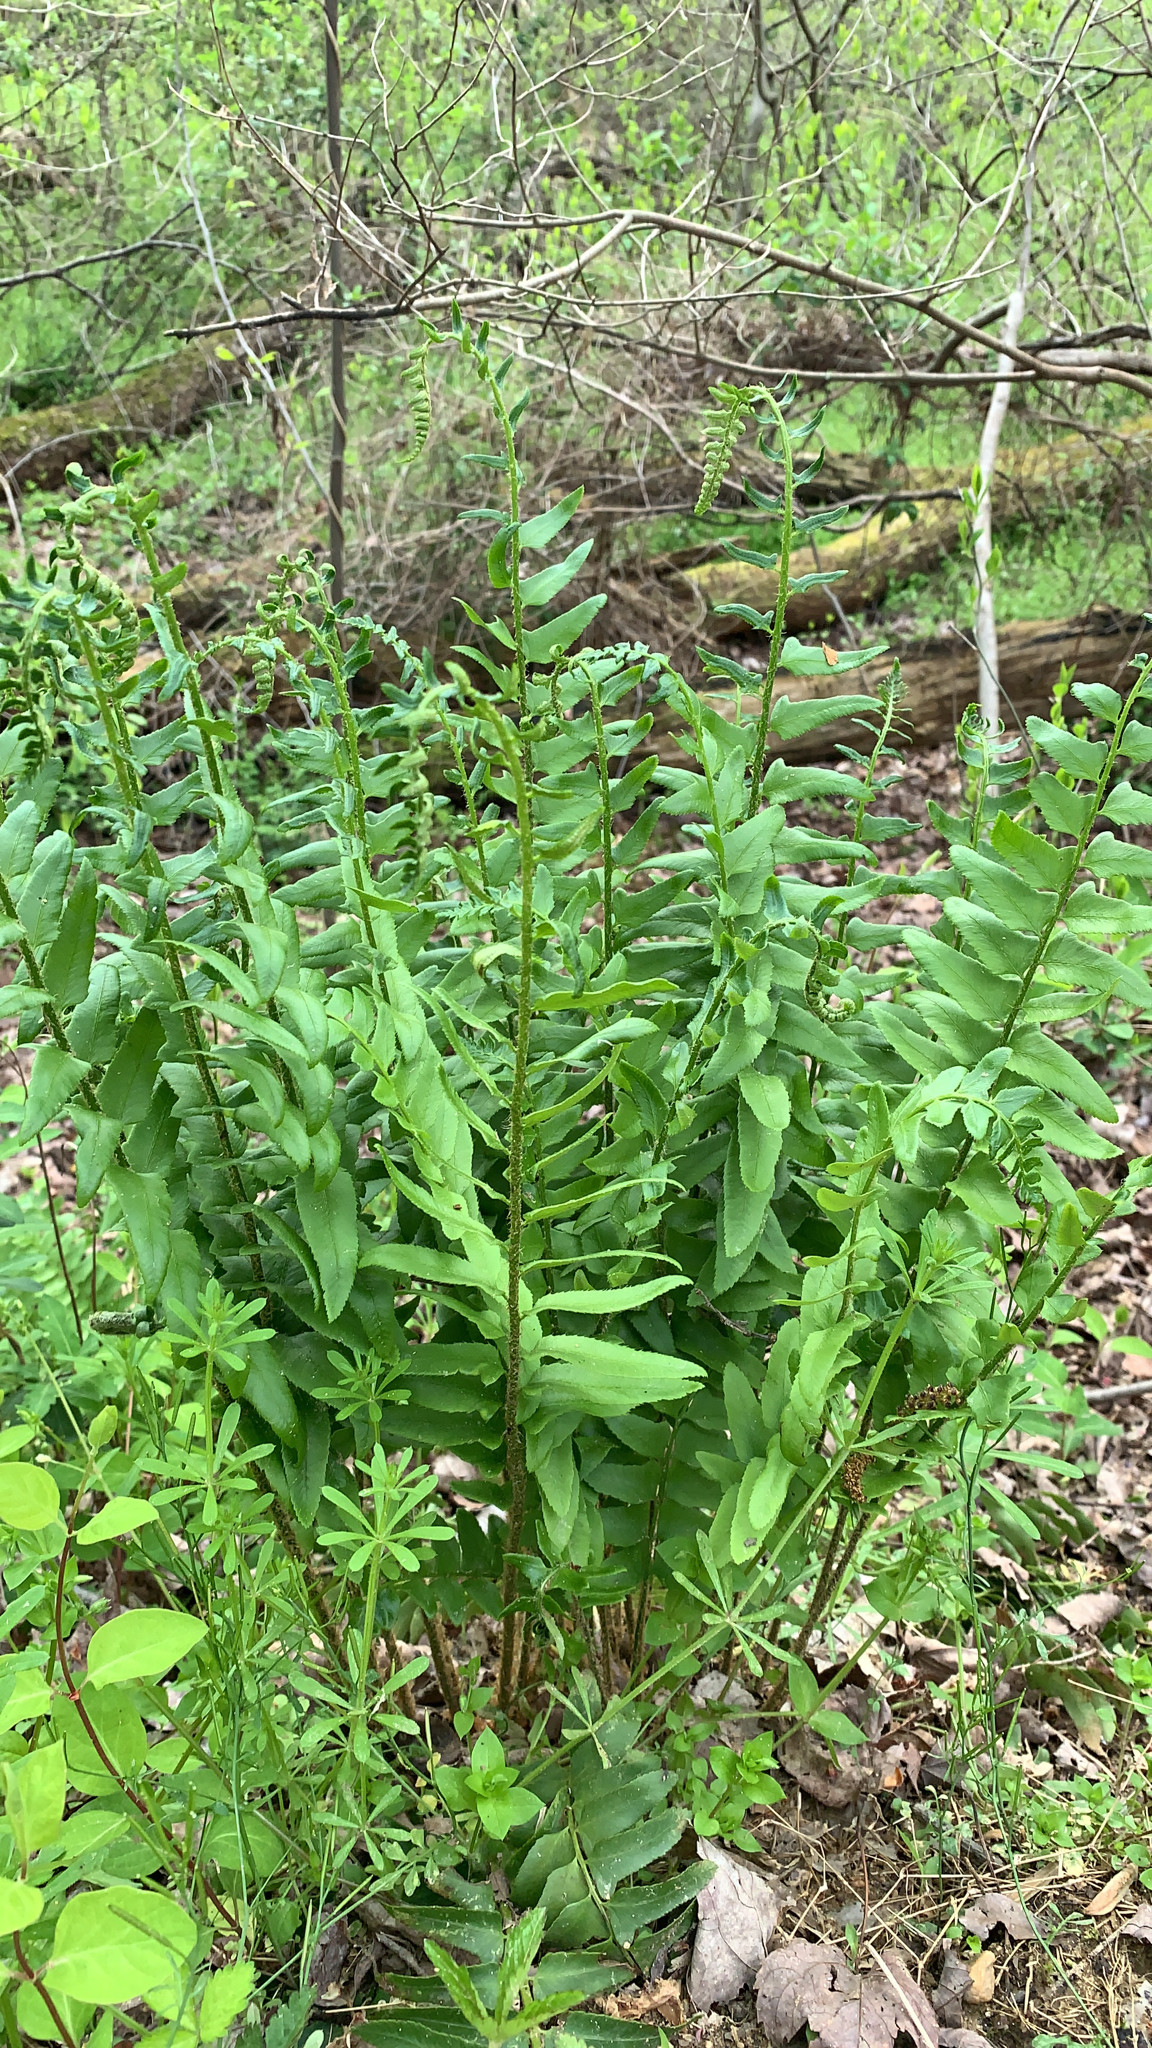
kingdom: Plantae
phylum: Tracheophyta
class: Polypodiopsida
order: Polypodiales
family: Dryopteridaceae
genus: Polystichum
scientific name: Polystichum acrostichoides
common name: Christmas fern
